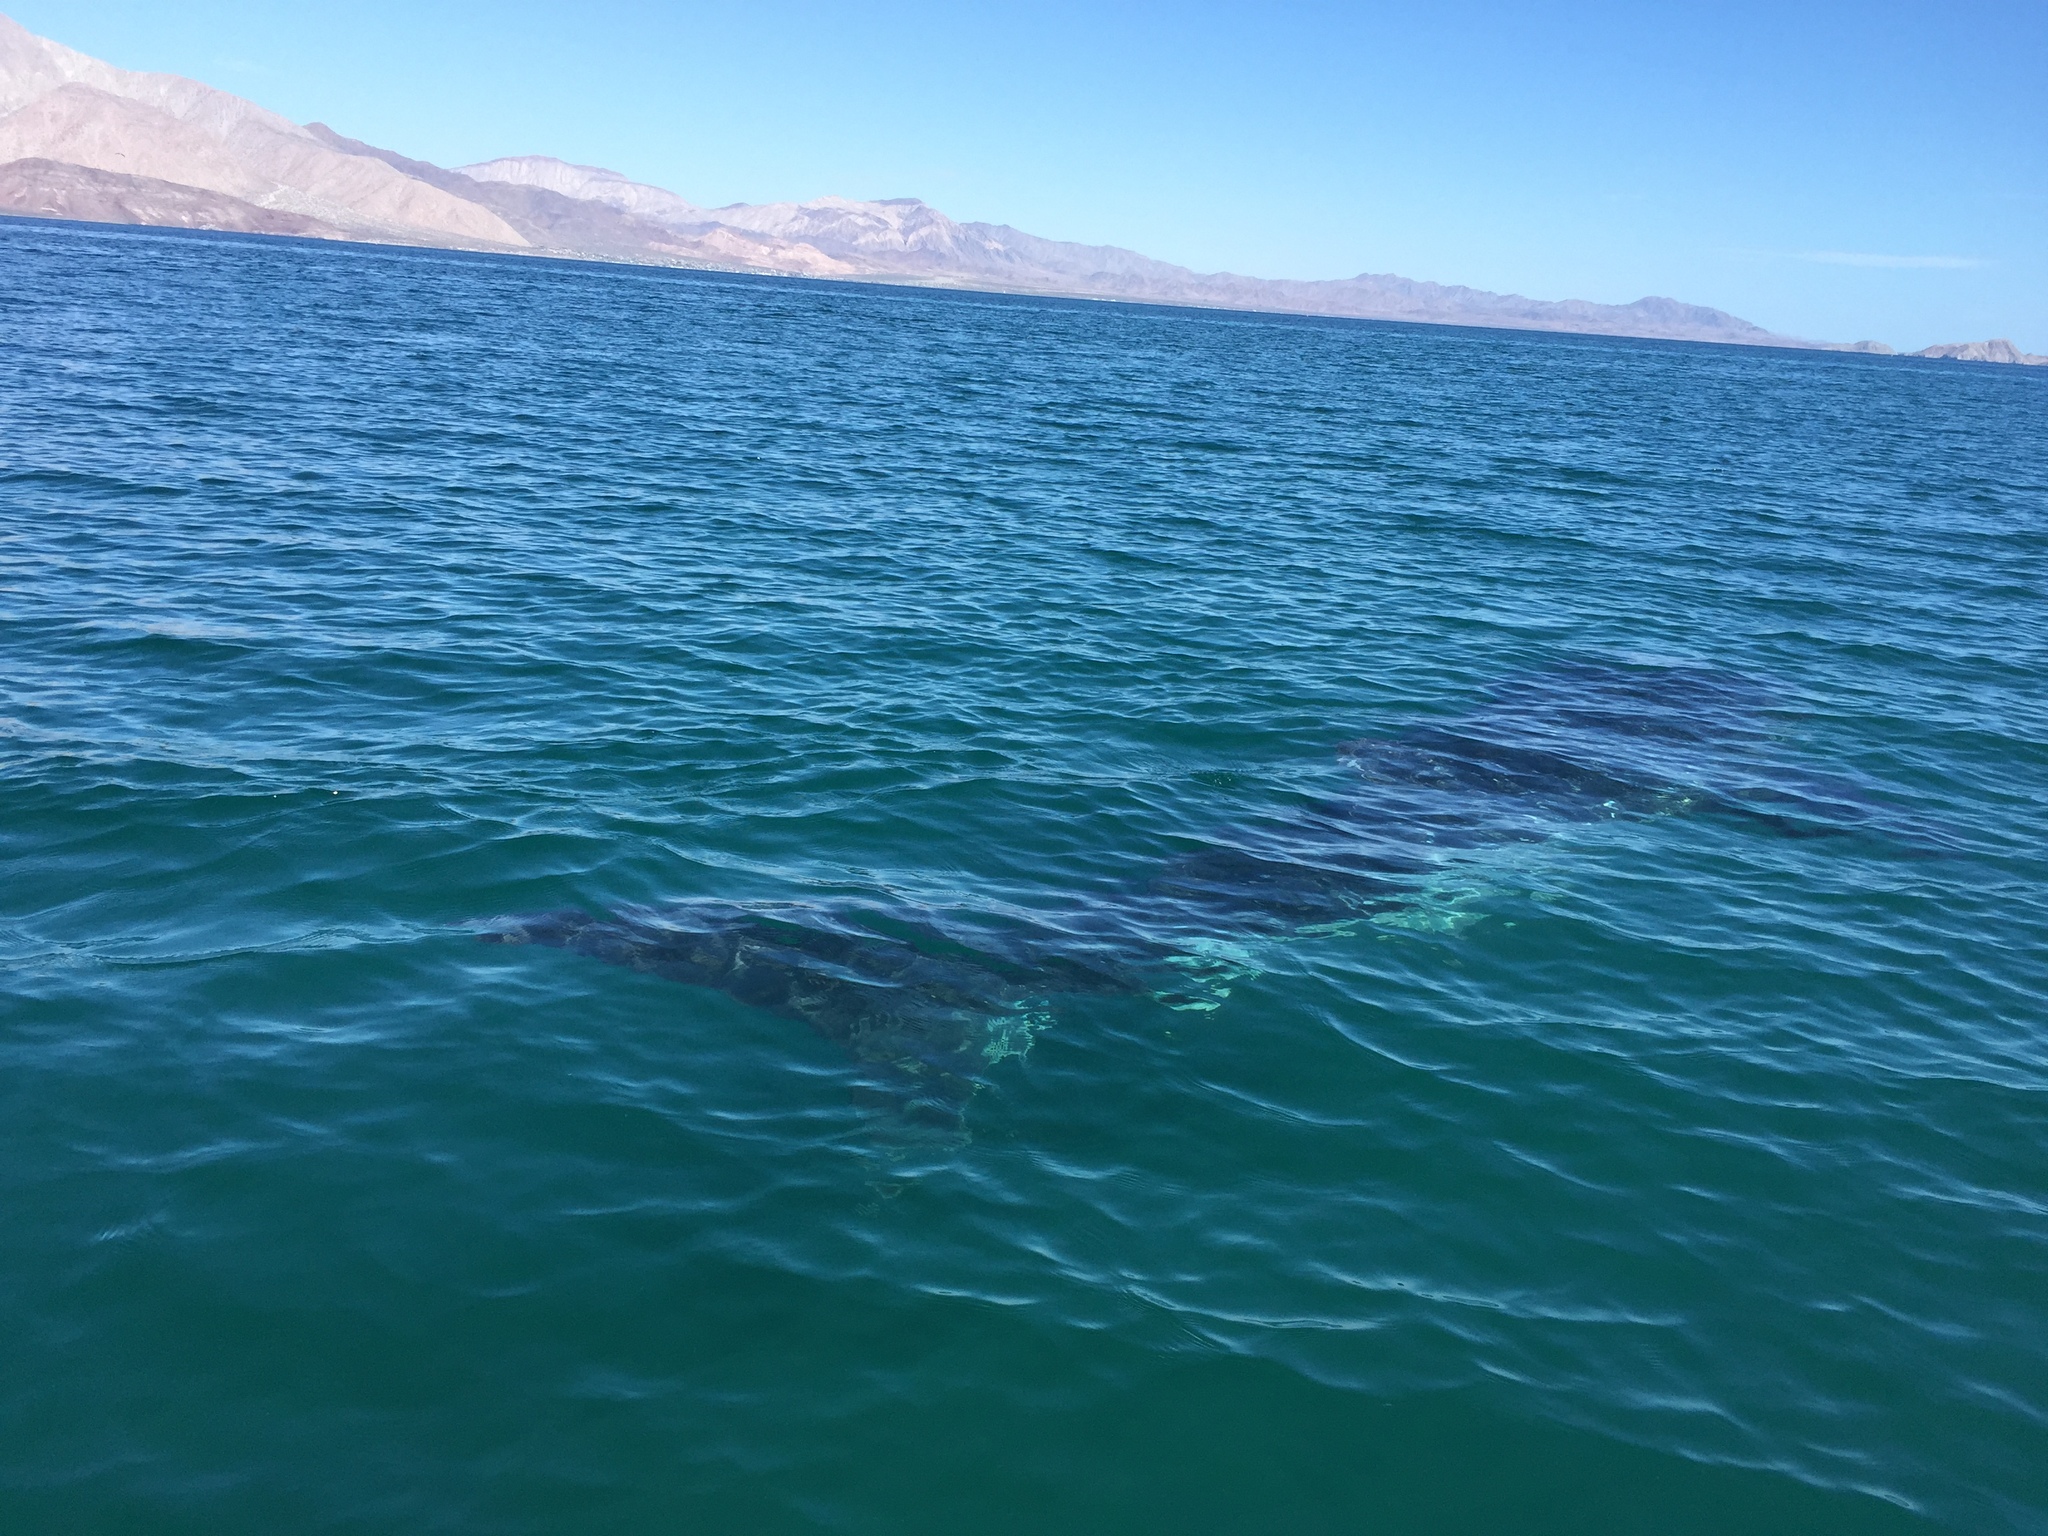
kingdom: Animalia
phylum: Chordata
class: Elasmobranchii
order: Orectolobiformes
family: Rhincodontidae
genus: Rhincodon
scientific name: Rhincodon typus
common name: Whale shark
